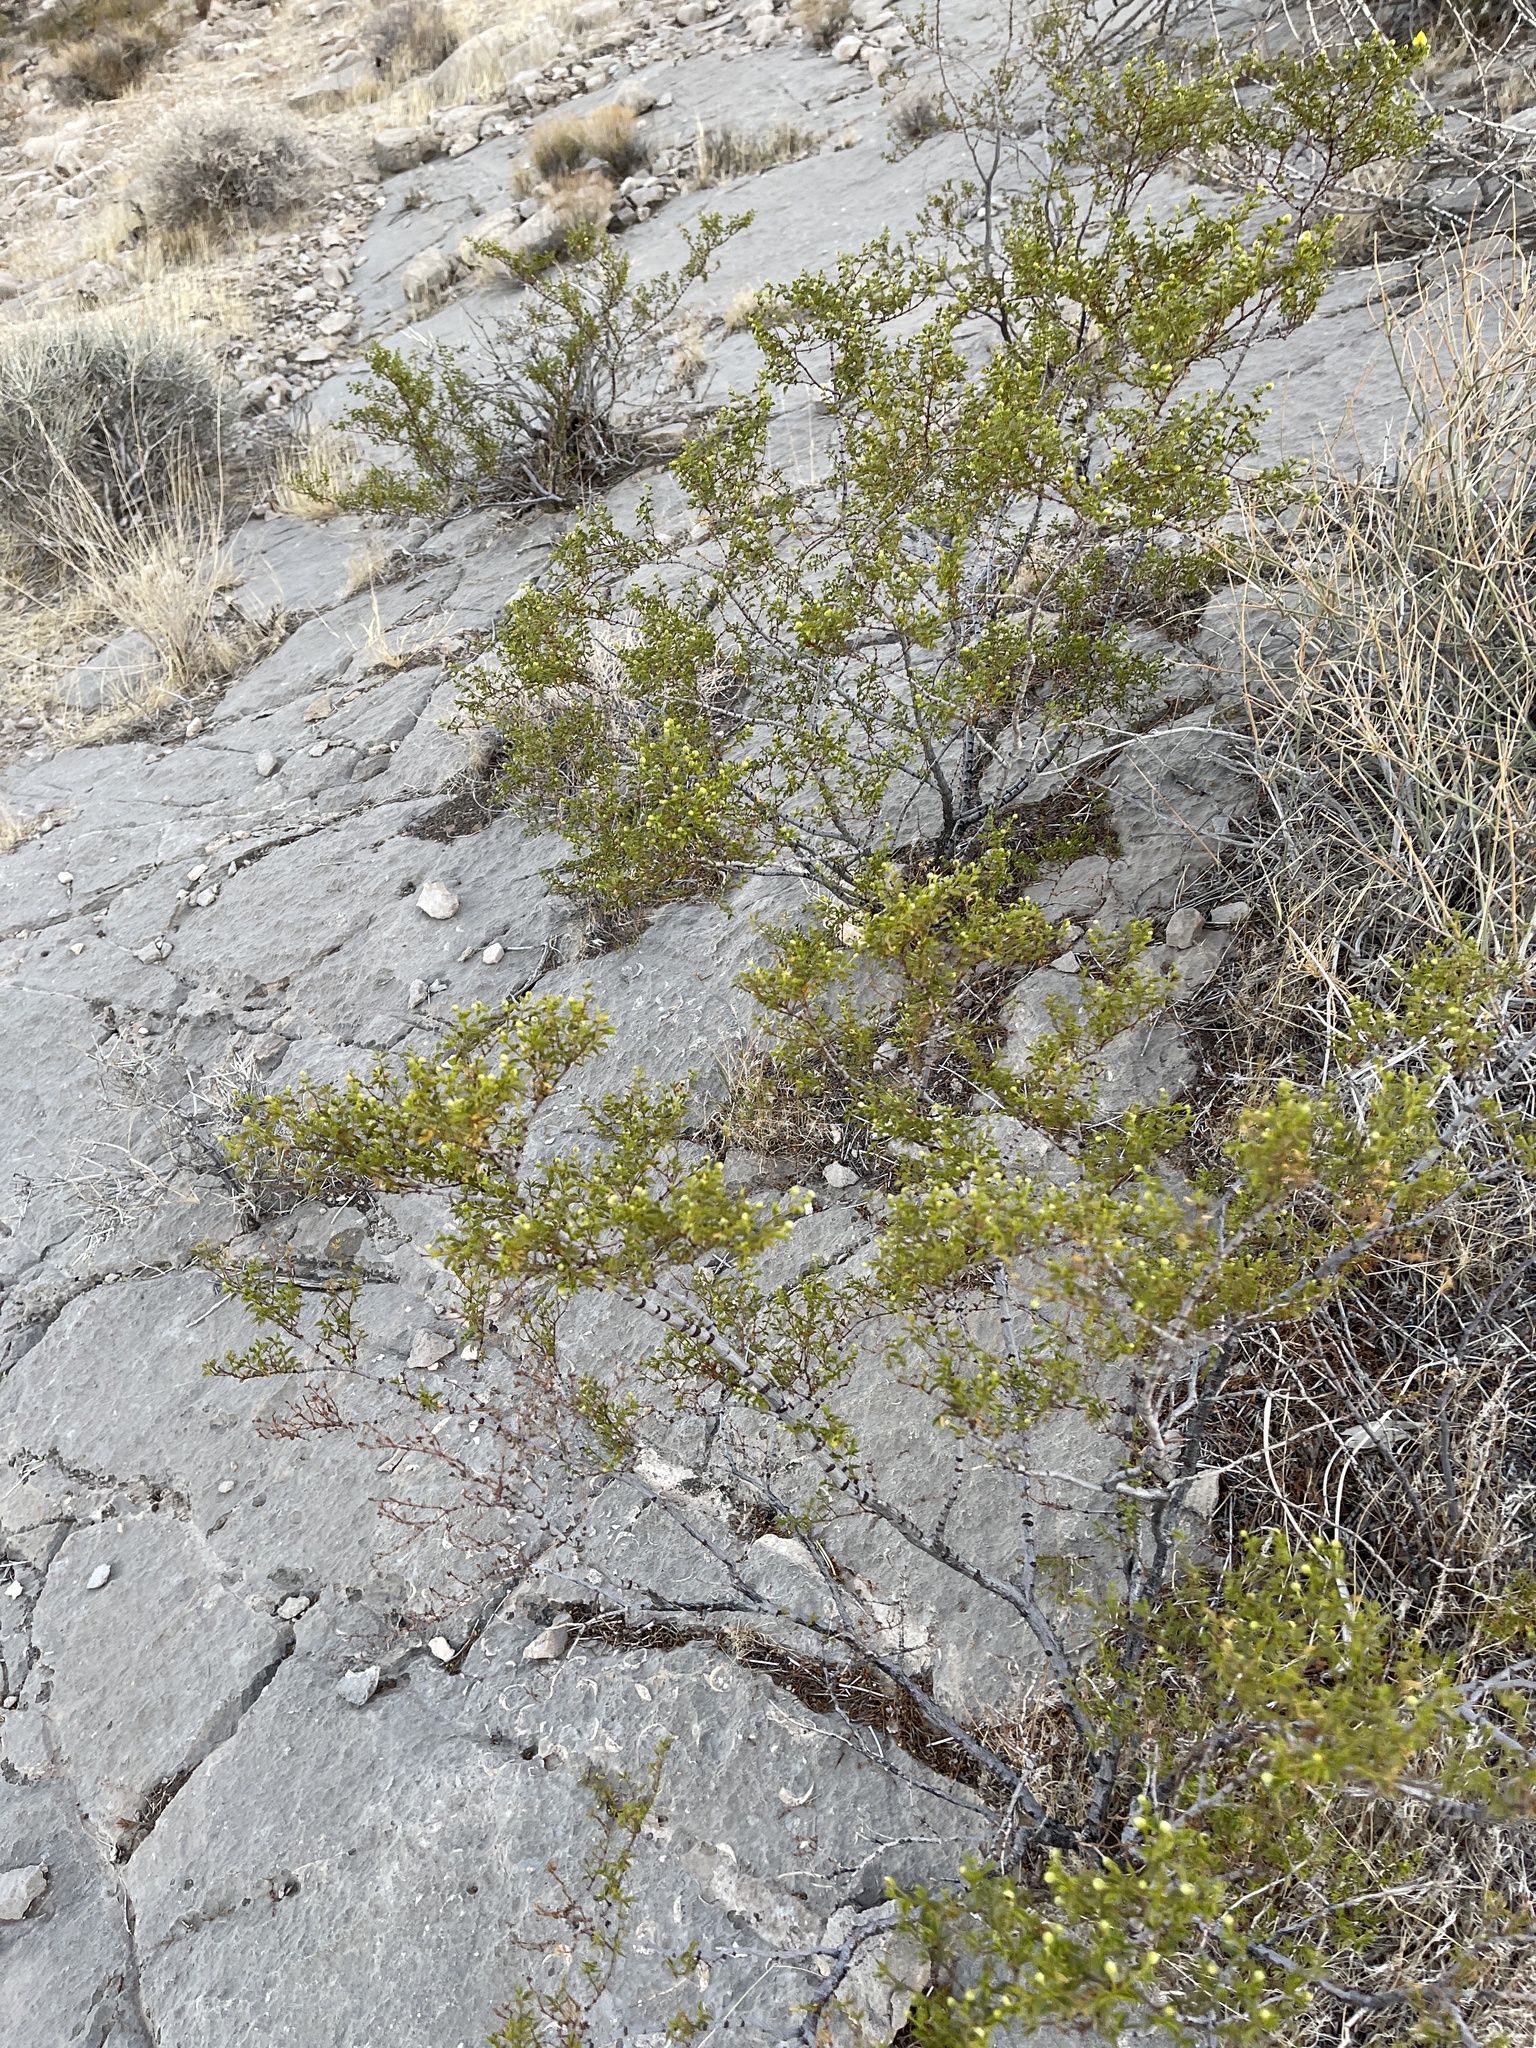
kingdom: Plantae
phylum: Tracheophyta
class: Magnoliopsida
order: Zygophyllales
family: Zygophyllaceae
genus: Larrea
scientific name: Larrea tridentata
